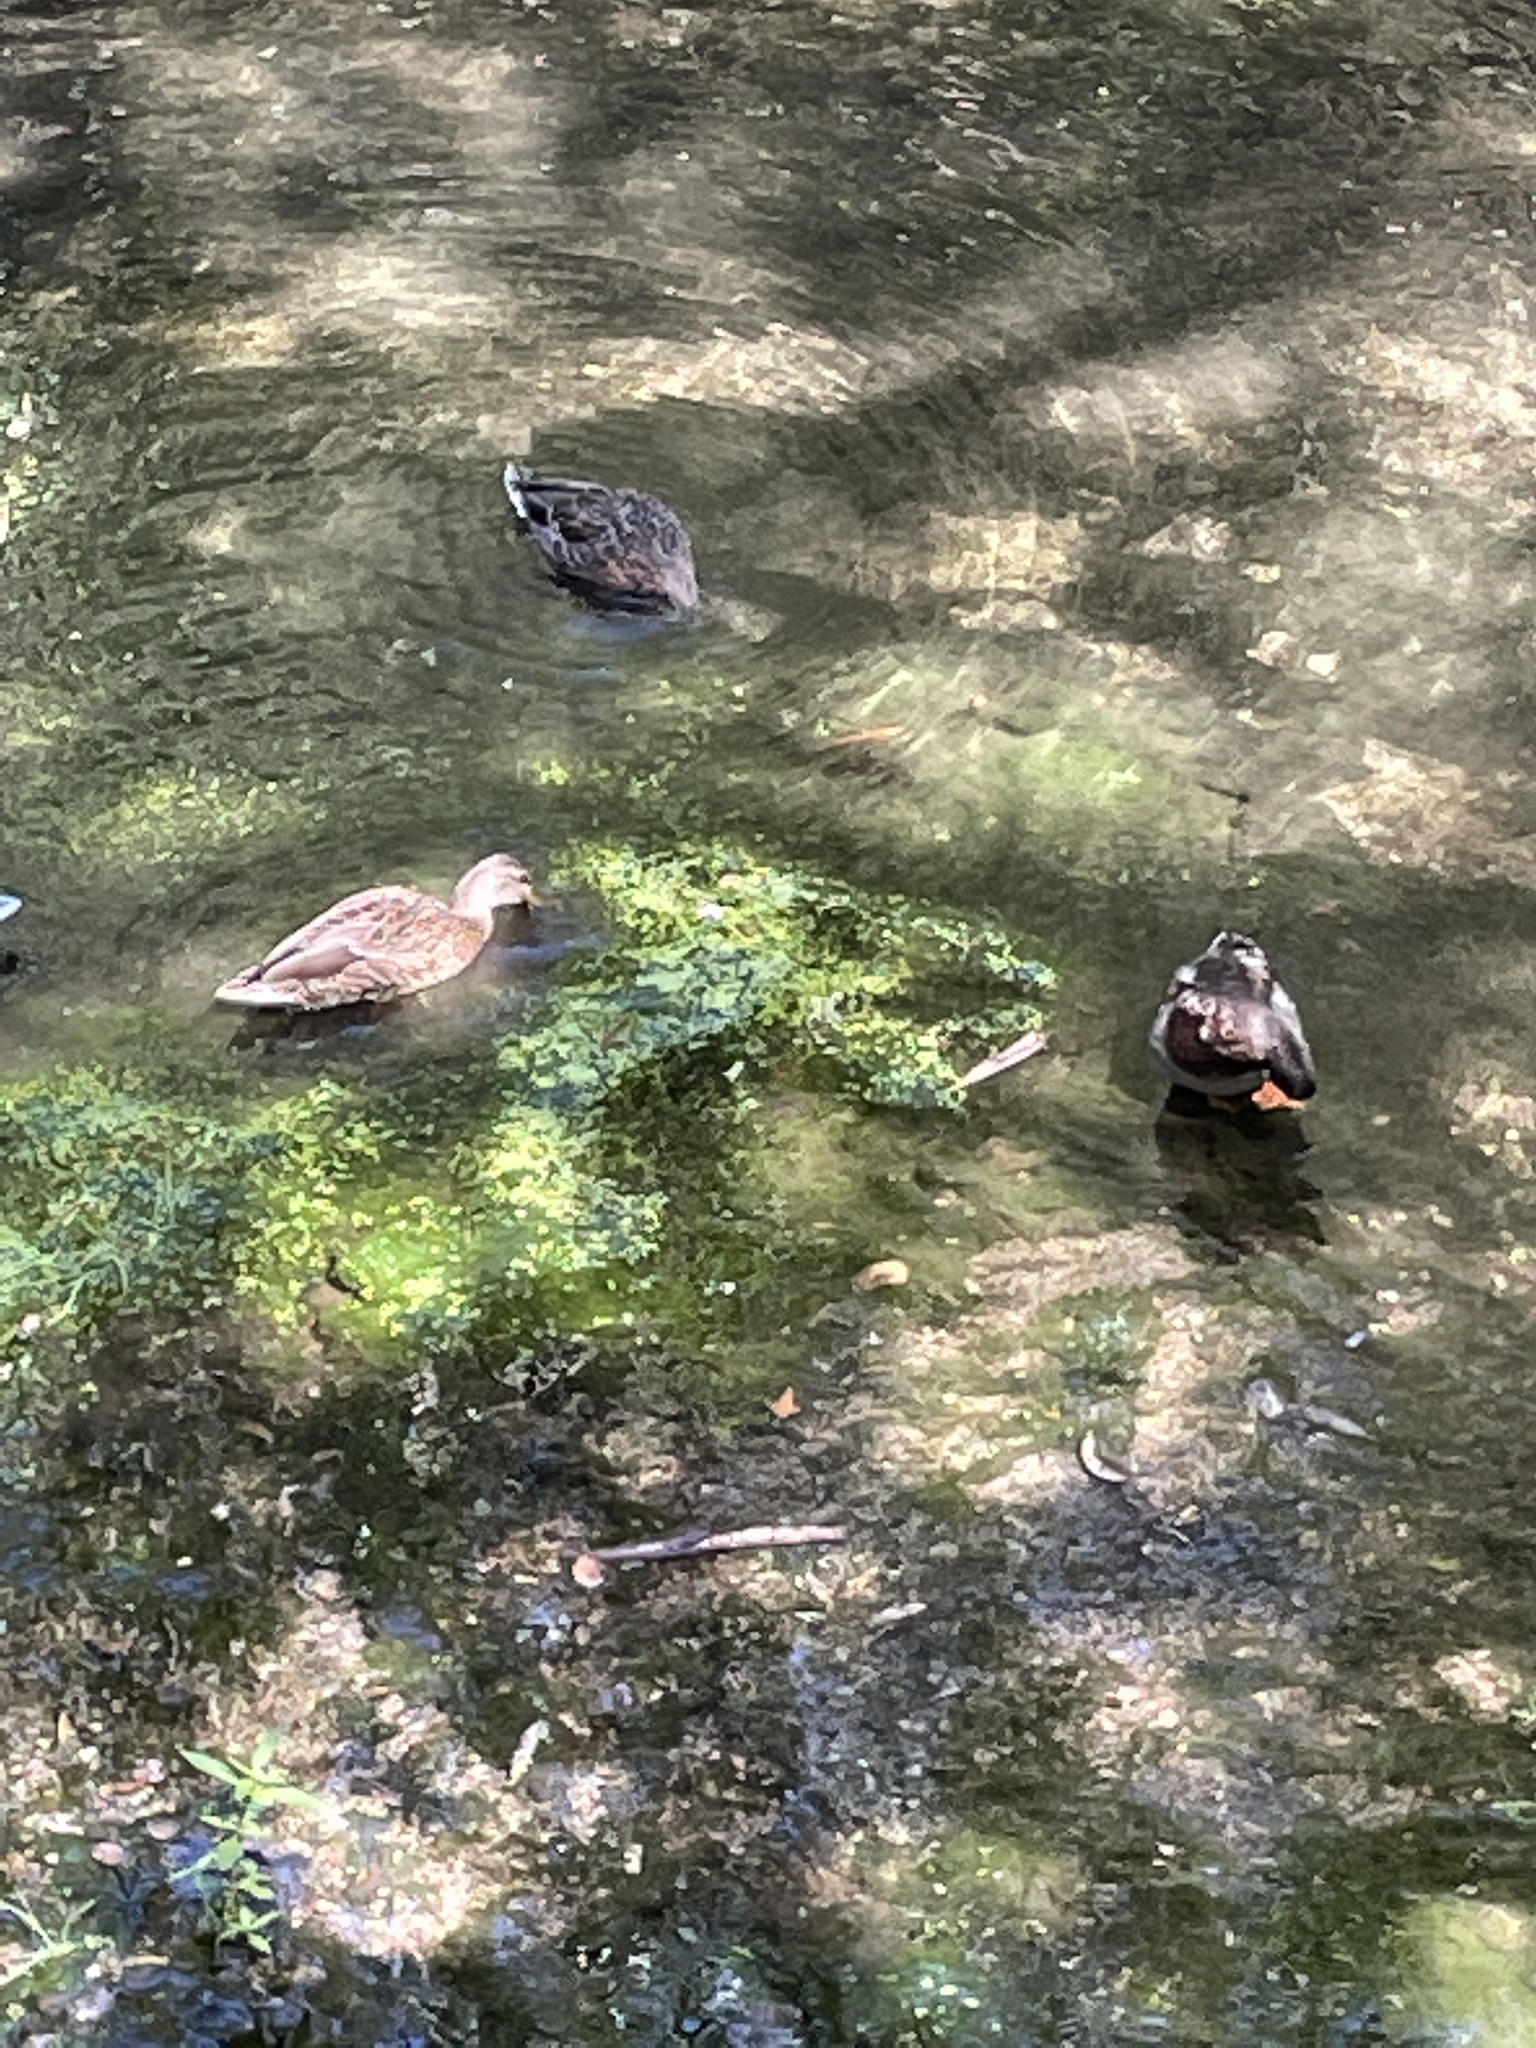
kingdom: Animalia
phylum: Chordata
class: Aves
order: Anseriformes
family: Anatidae
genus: Anas
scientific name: Anas platyrhynchos
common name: Mallard
